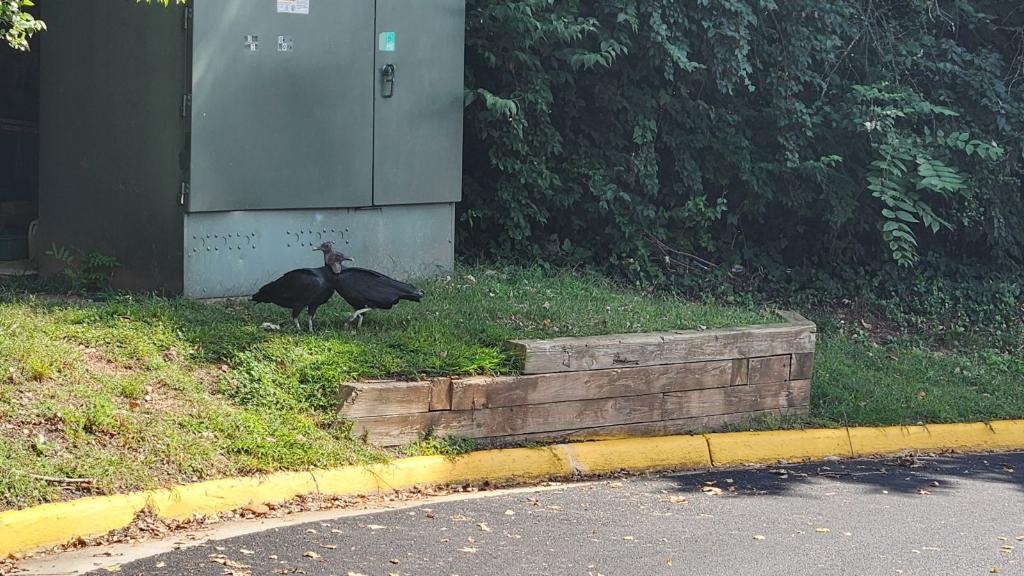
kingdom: Animalia
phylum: Chordata
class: Aves
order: Accipitriformes
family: Cathartidae
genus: Coragyps
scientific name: Coragyps atratus
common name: Black vulture
